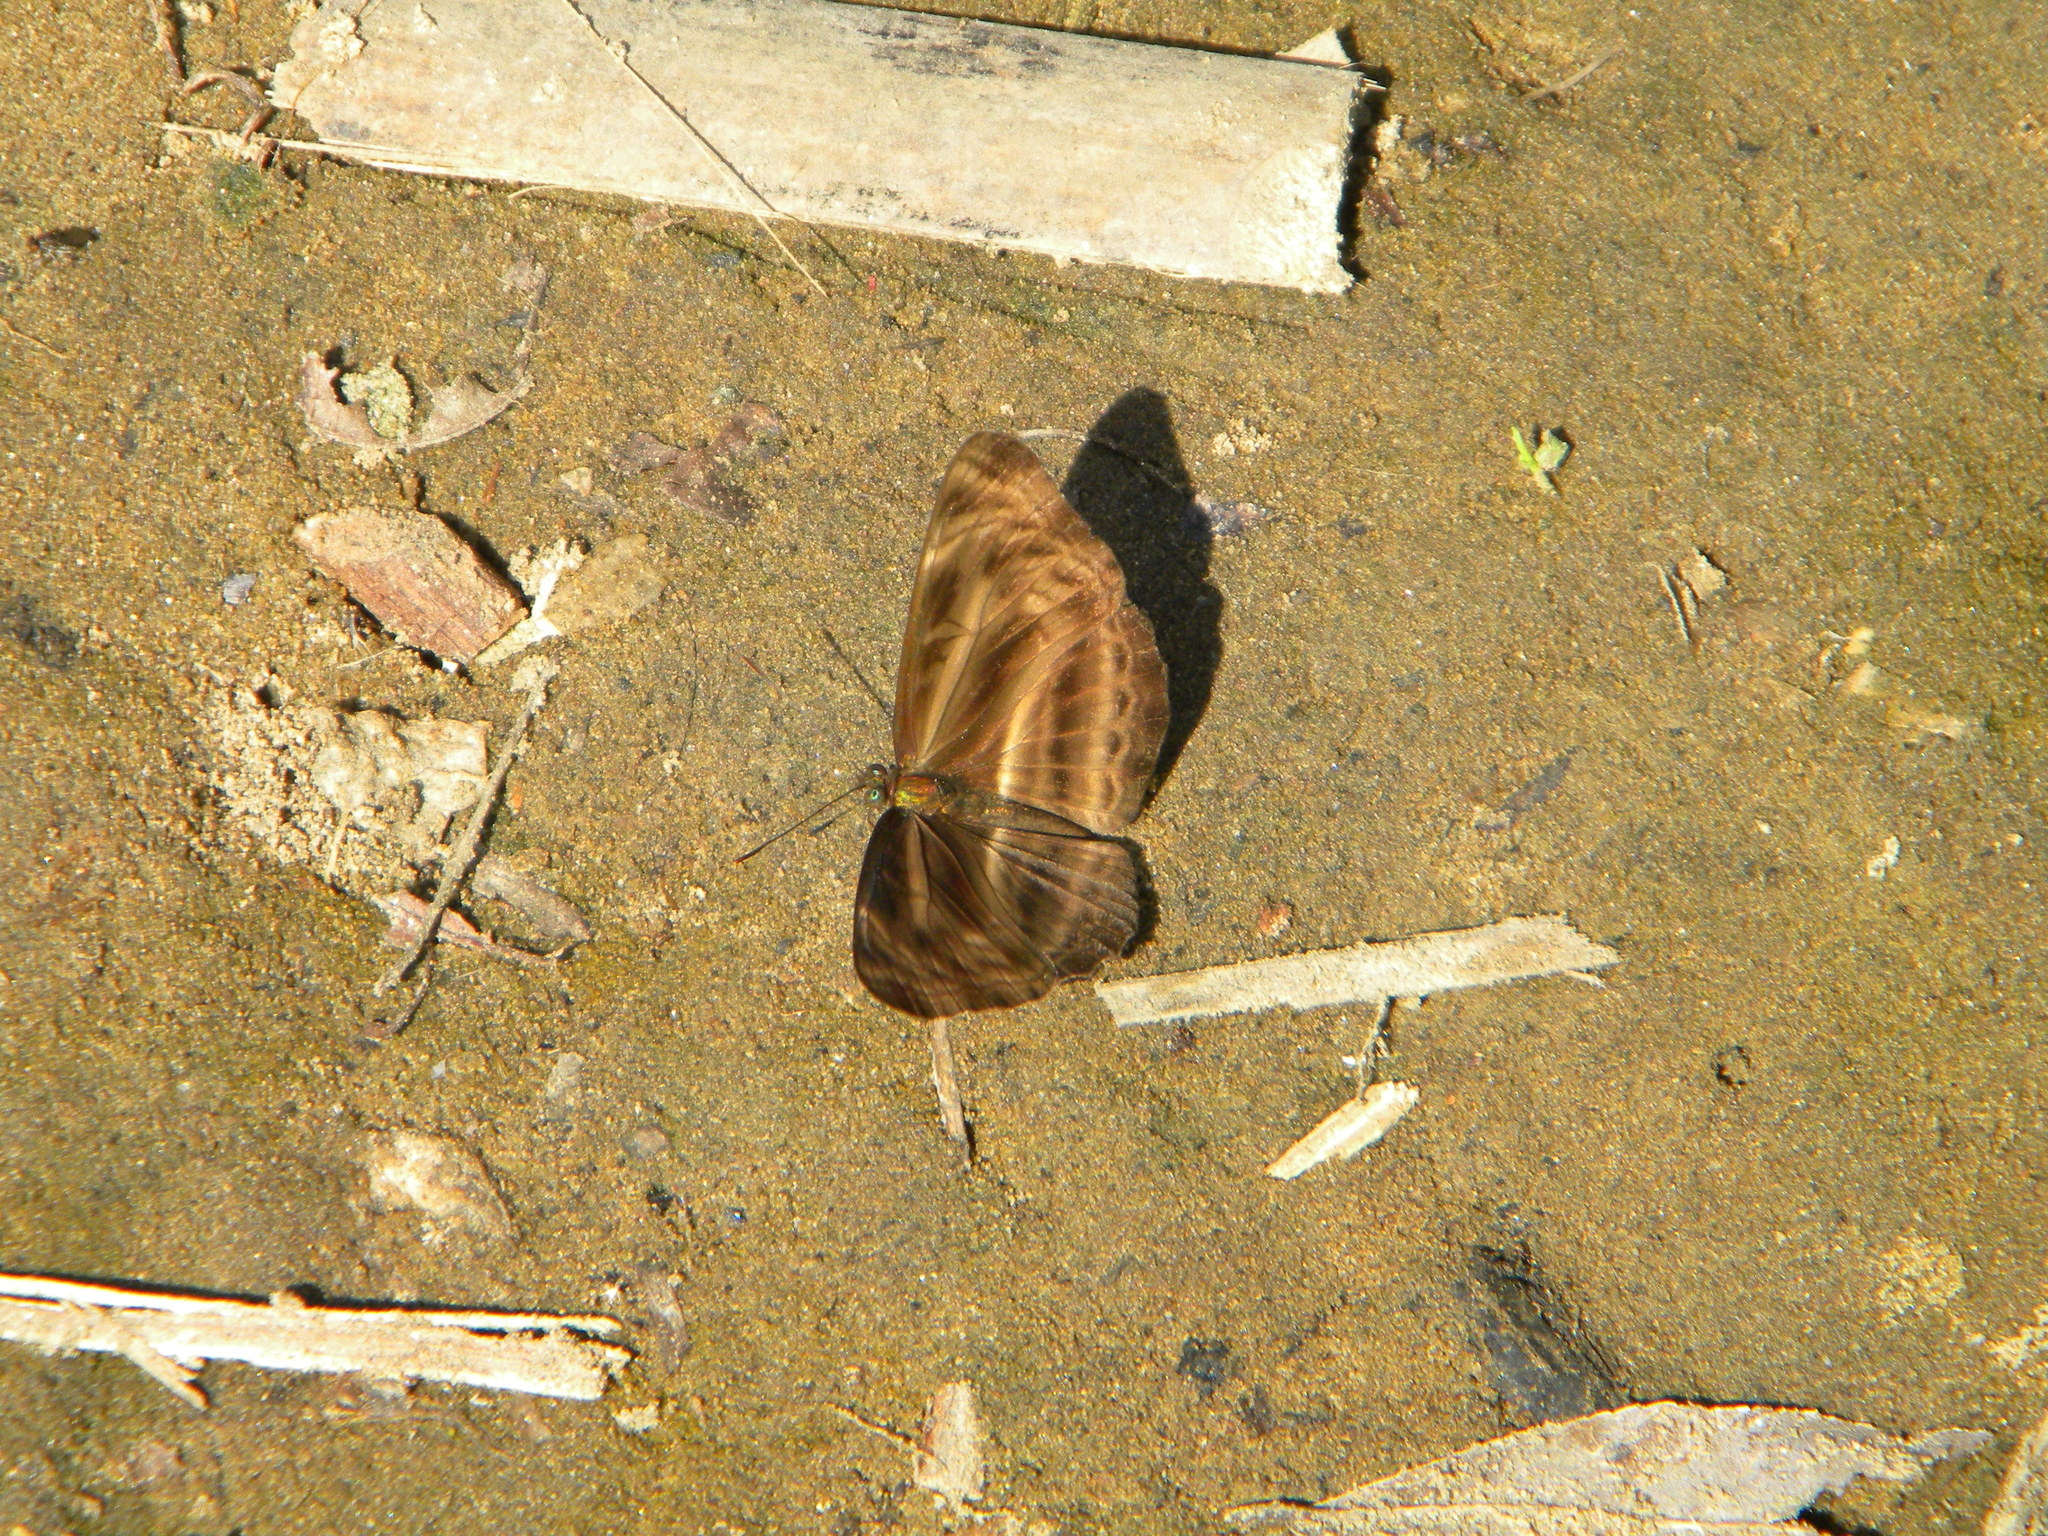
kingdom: Animalia
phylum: Arthropoda
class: Insecta
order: Lepidoptera
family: Nymphalidae
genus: Neptis
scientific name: Neptis
